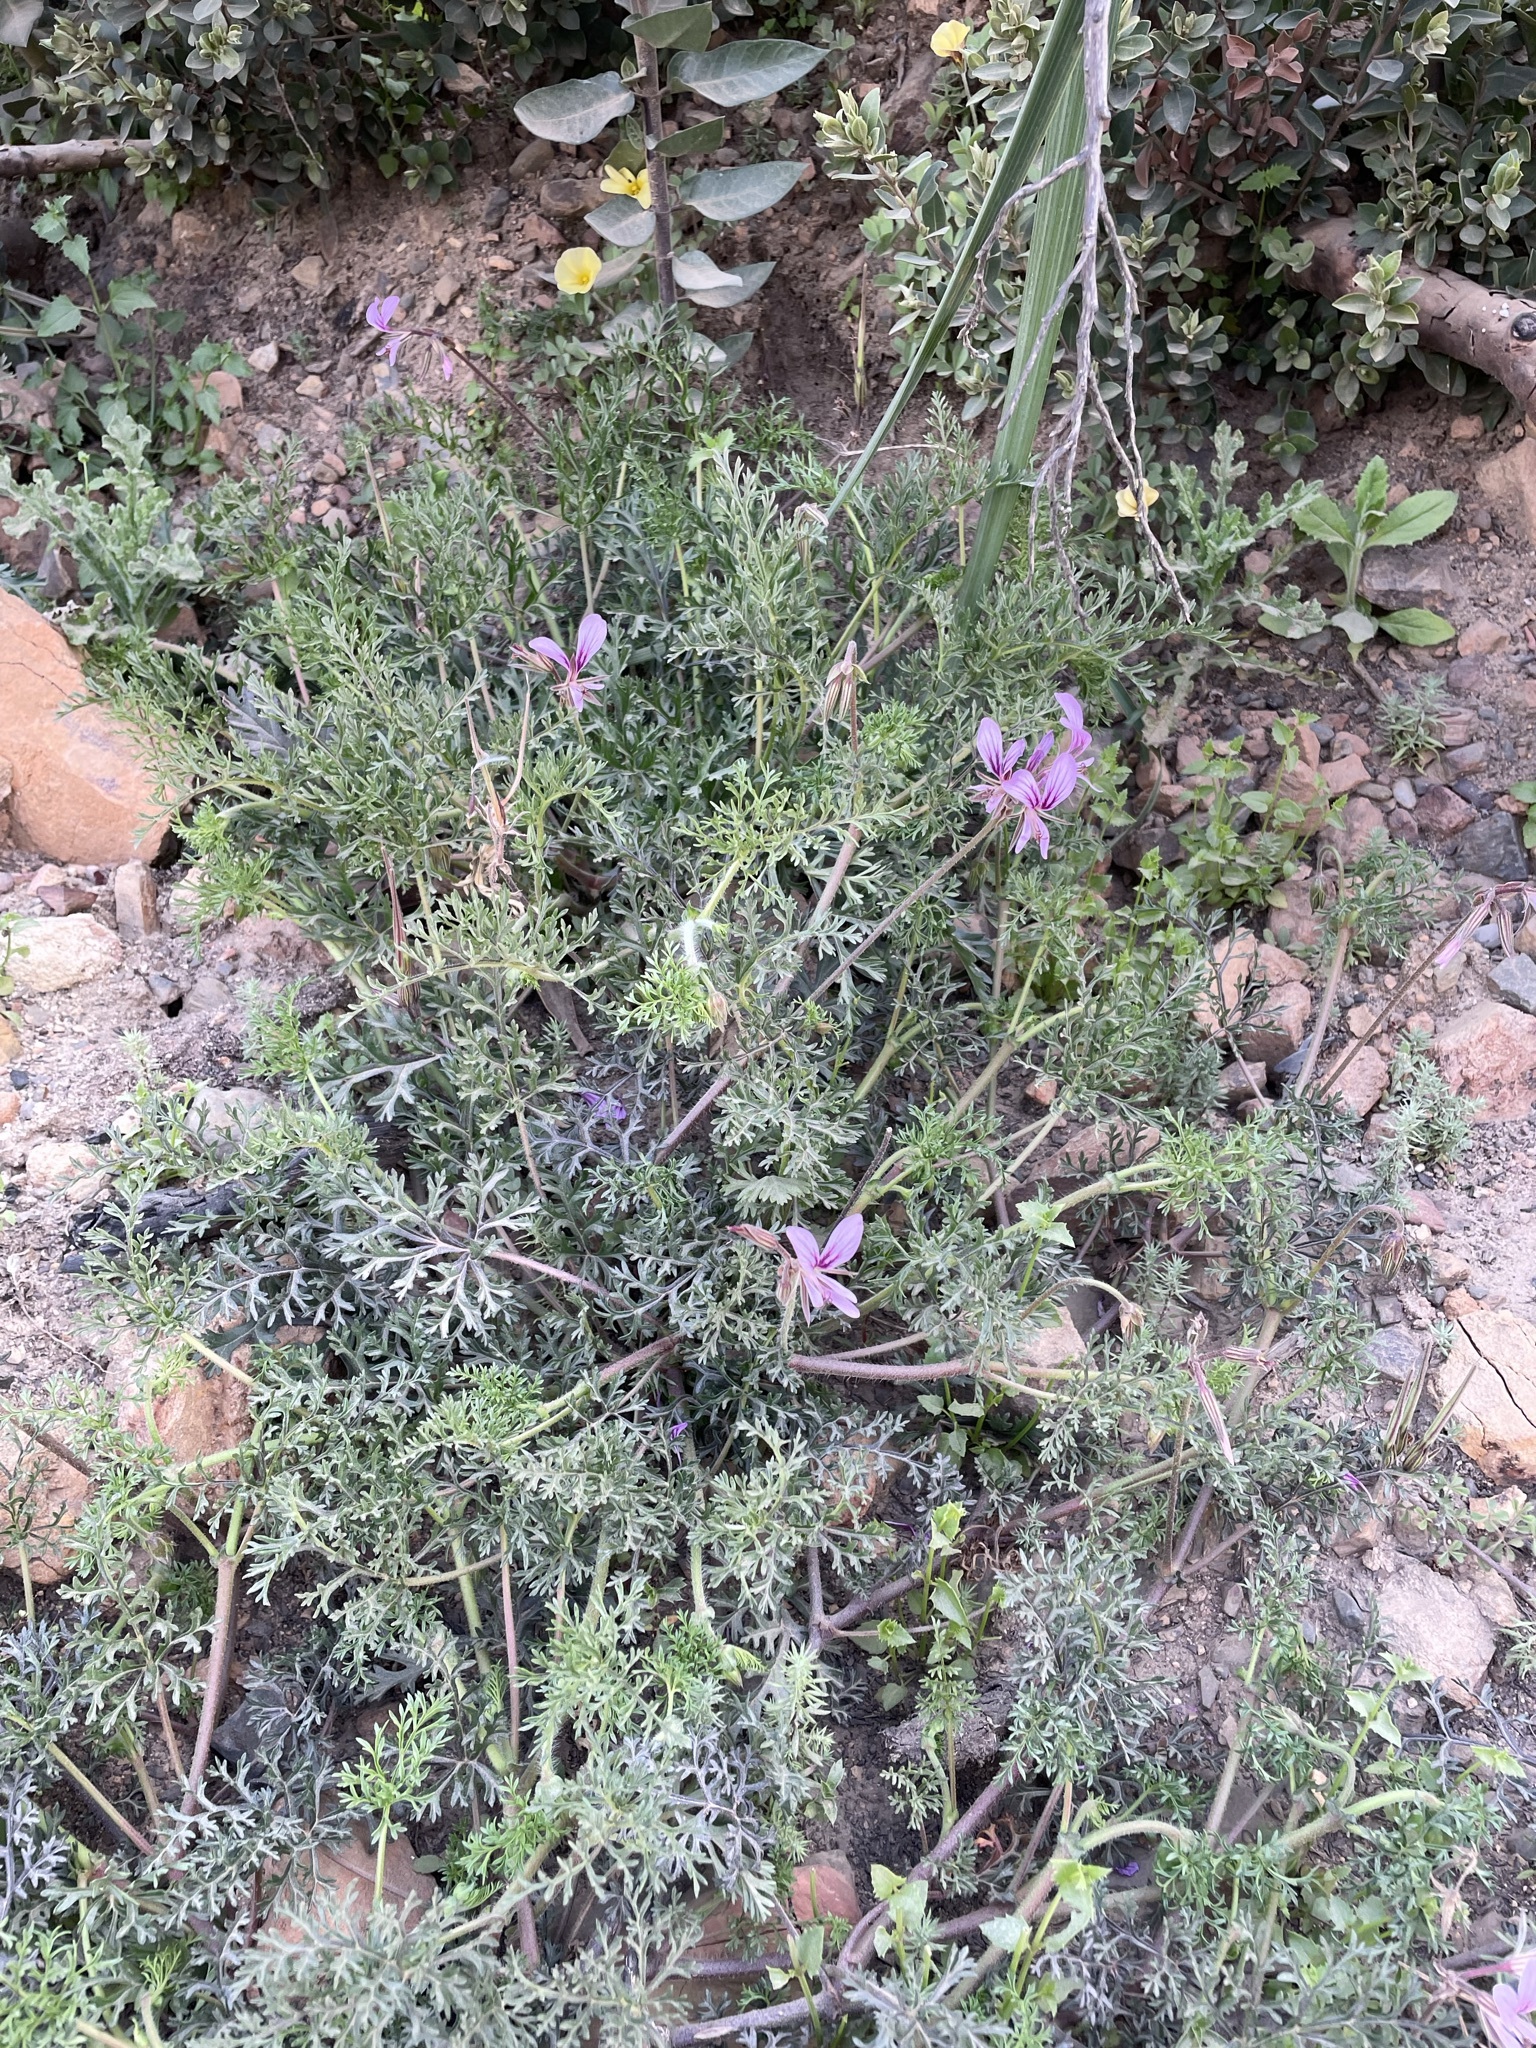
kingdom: Plantae
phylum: Tracheophyta
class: Magnoliopsida
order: Geraniales
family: Geraniaceae
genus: Pelargonium
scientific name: Pelargonium myrrhifolium
